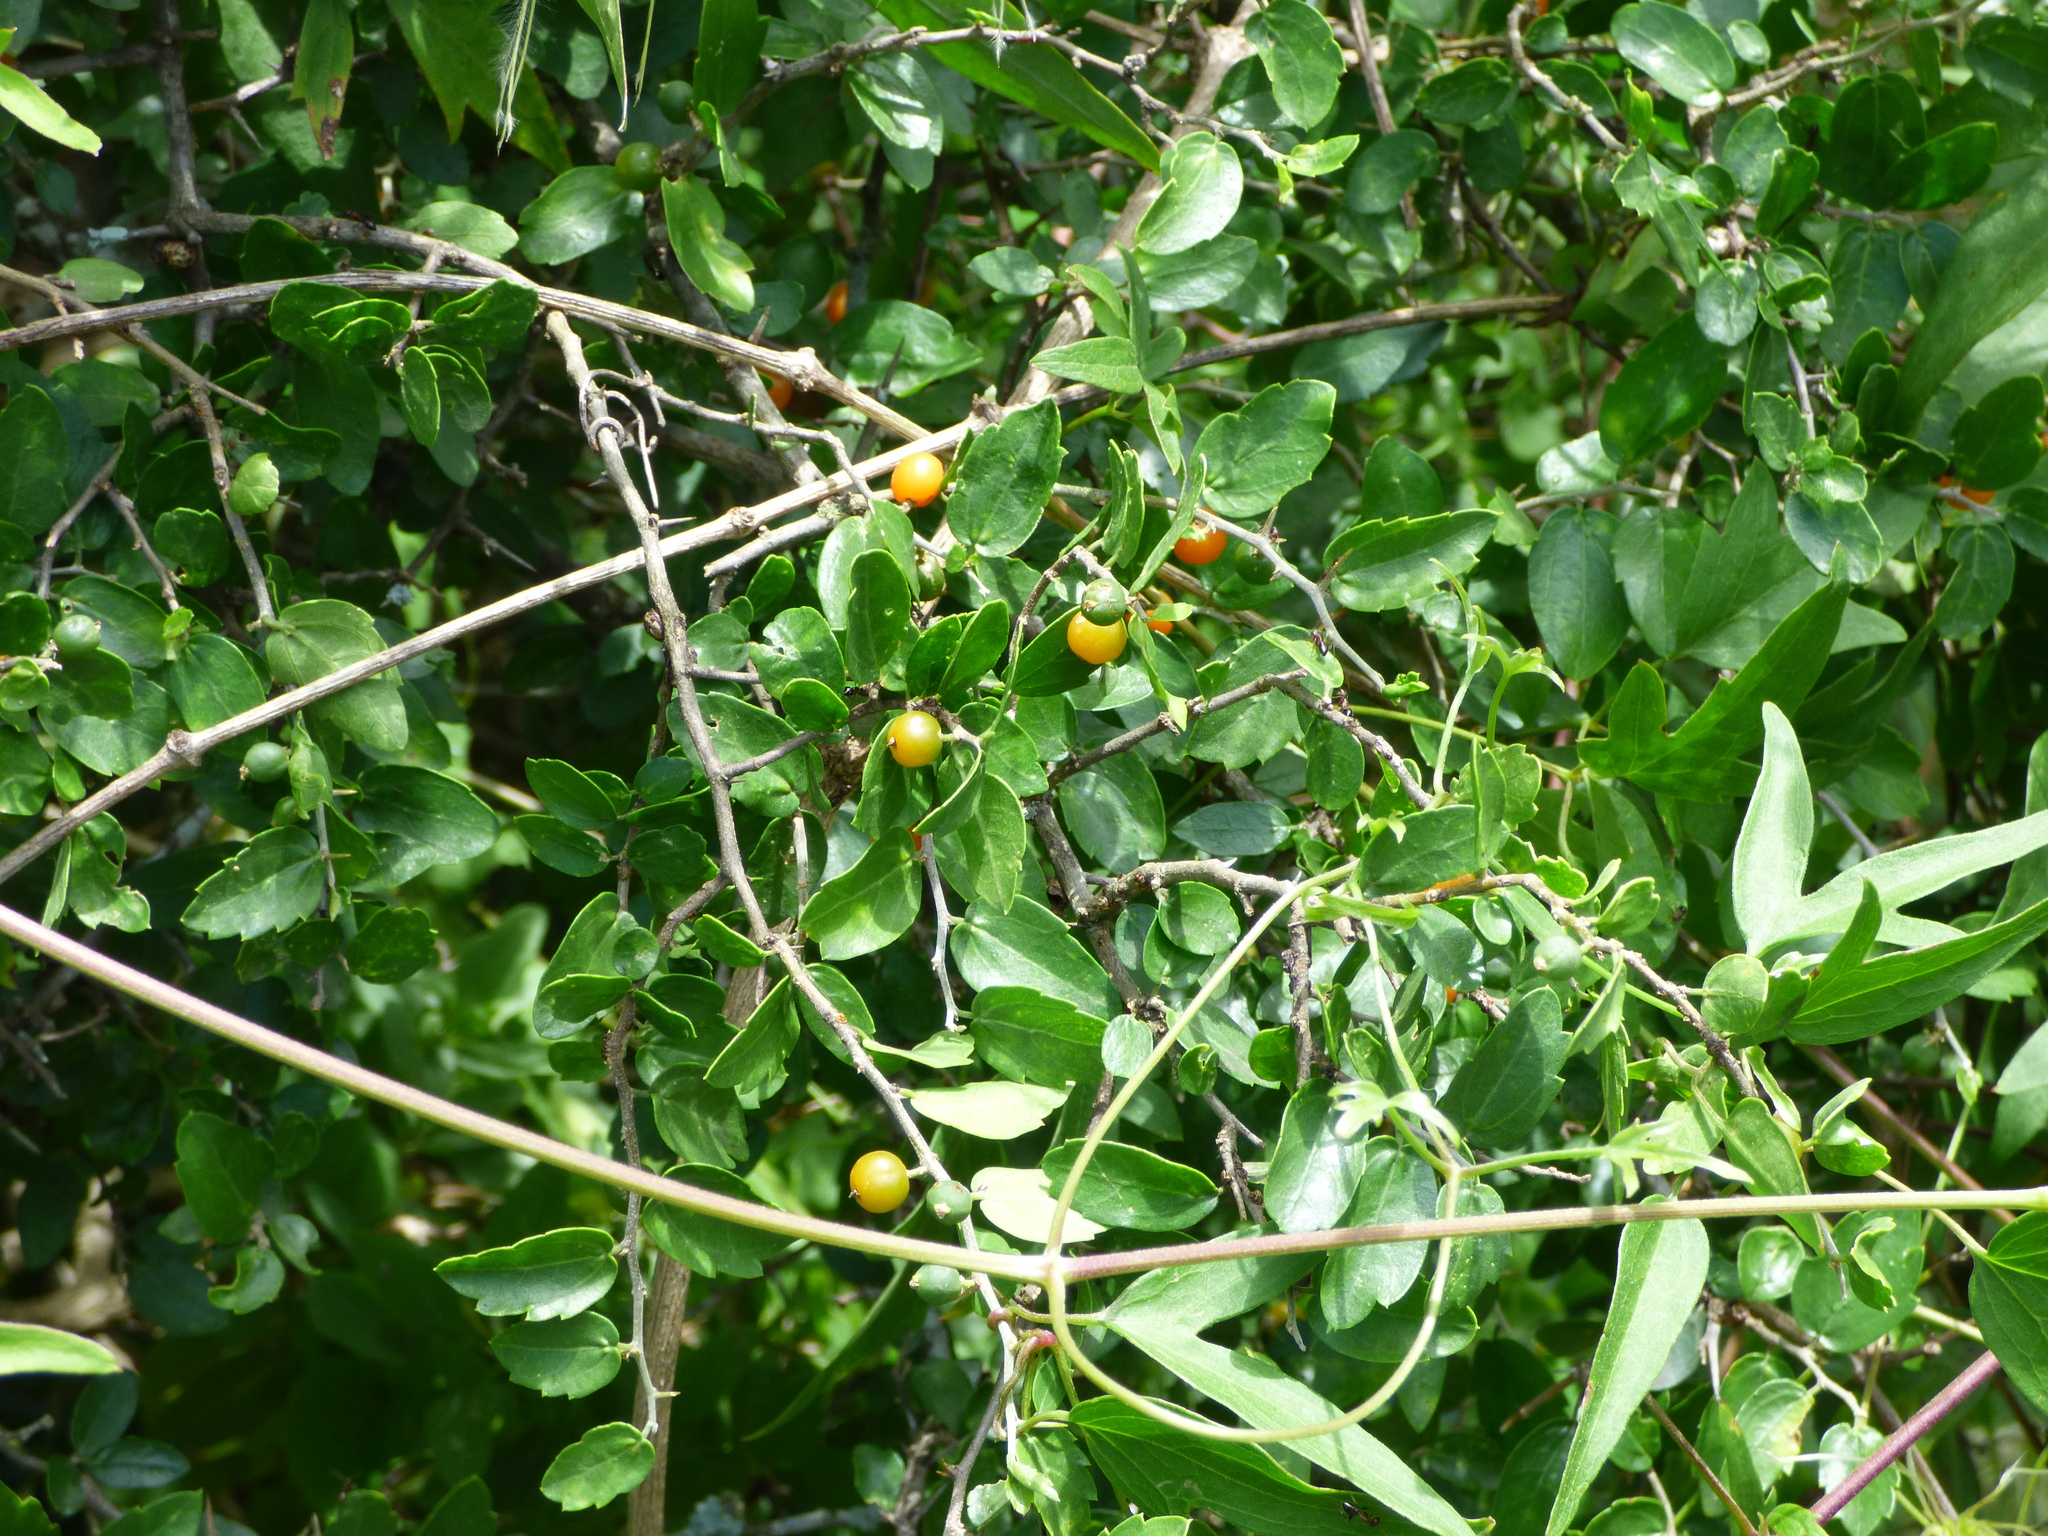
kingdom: Plantae
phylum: Tracheophyta
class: Magnoliopsida
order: Rosales
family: Cannabaceae
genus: Celtis
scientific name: Celtis pallida
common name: Desert hackberry
